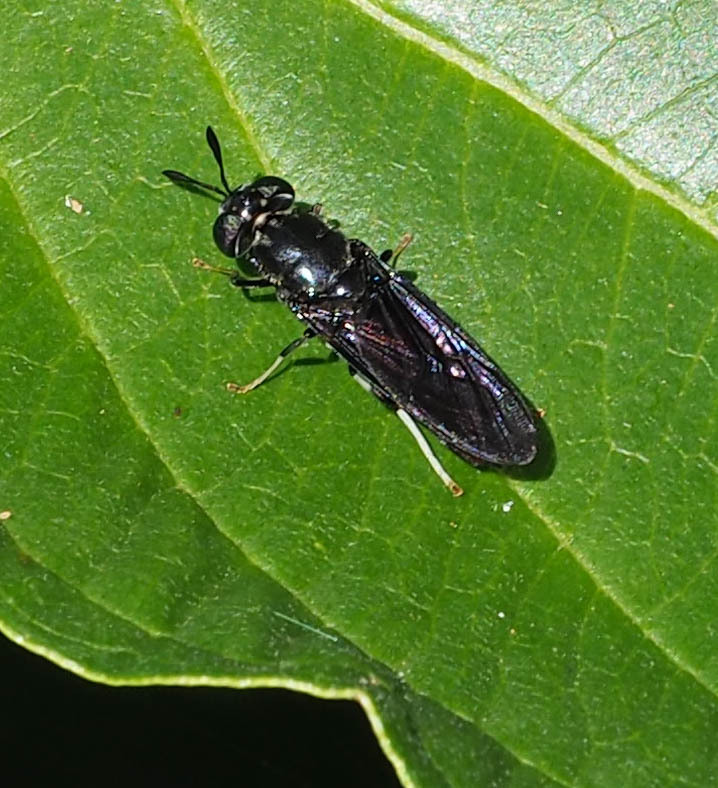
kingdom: Animalia
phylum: Arthropoda
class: Insecta
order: Diptera
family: Stratiomyidae
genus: Hermetia
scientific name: Hermetia illucens
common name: Black soldier fly
